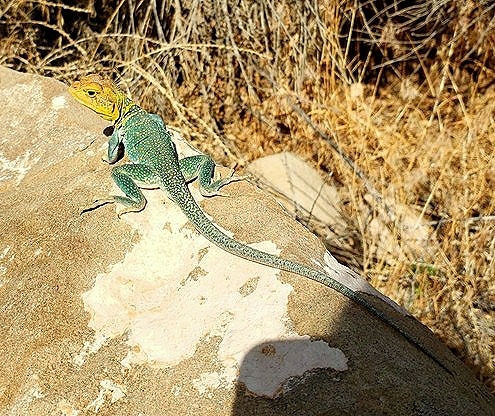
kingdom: Animalia
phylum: Chordata
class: Squamata
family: Crotaphytidae
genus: Crotaphytus
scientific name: Crotaphytus collaris
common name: Collared lizard
